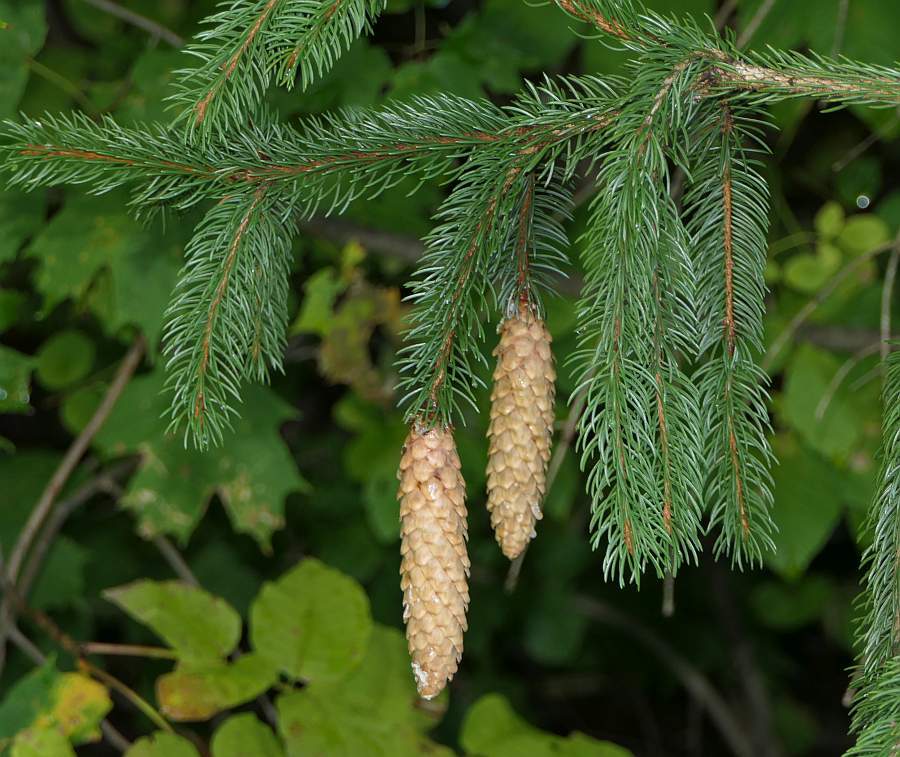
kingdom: Plantae
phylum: Tracheophyta
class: Pinopsida
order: Pinales
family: Pinaceae
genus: Picea
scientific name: Picea abies
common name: Norway spruce
